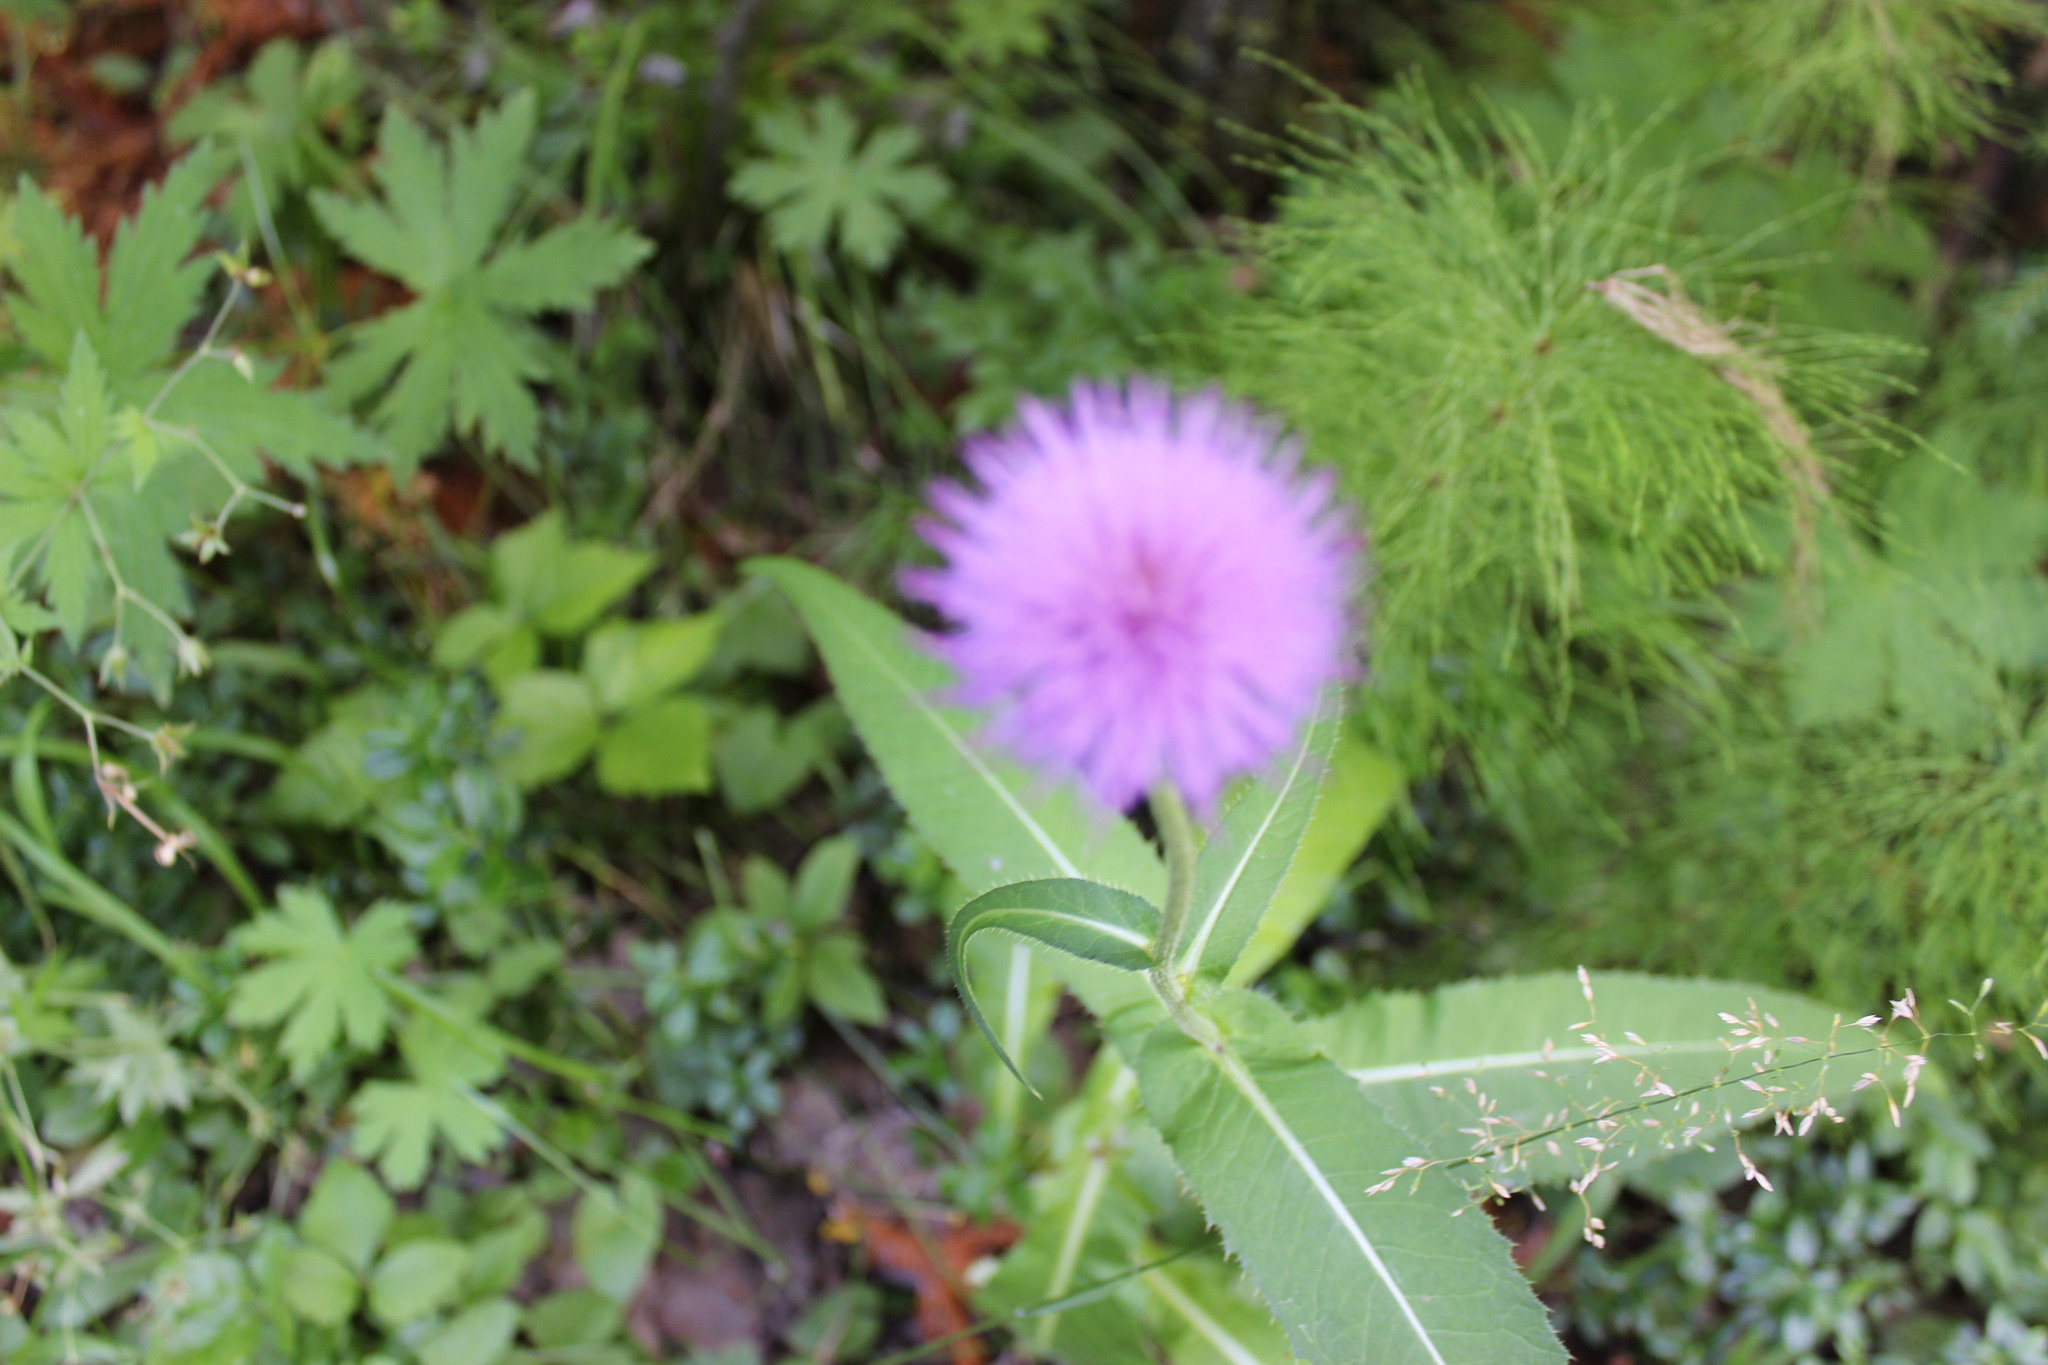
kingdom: Plantae
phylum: Tracheophyta
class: Magnoliopsida
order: Asterales
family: Asteraceae
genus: Cirsium
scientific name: Cirsium arvense
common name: Creeping thistle
